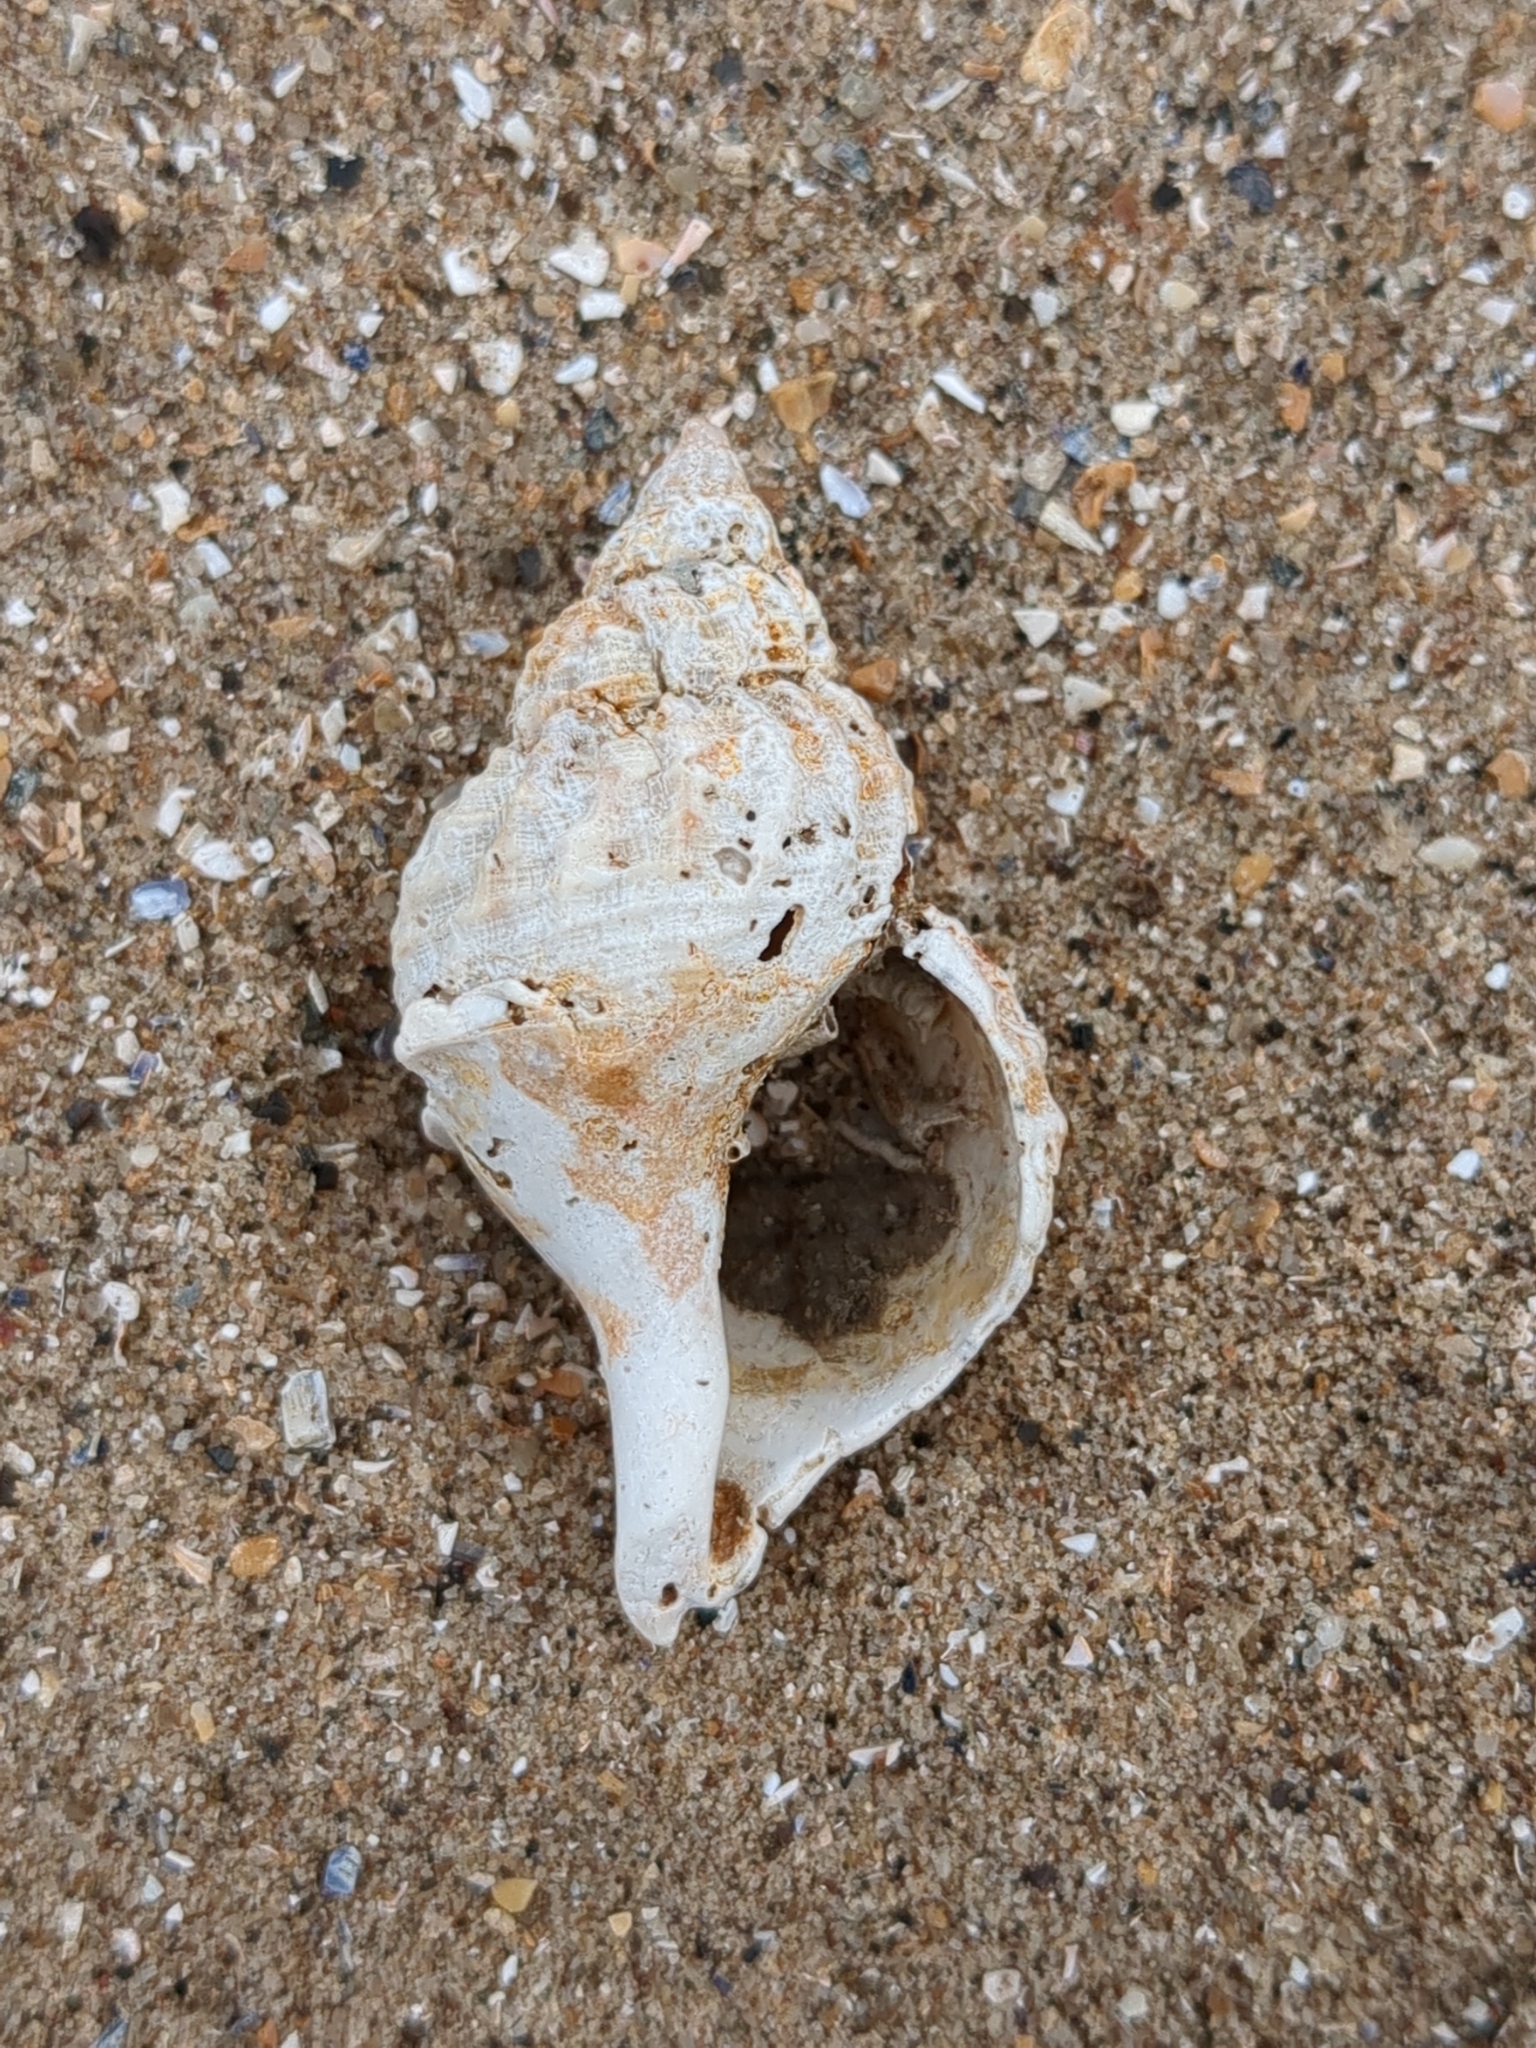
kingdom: Animalia
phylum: Mollusca
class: Gastropoda
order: Neogastropoda
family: Buccinidae
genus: Buccinum
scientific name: Buccinum undatum
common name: Common whelk
